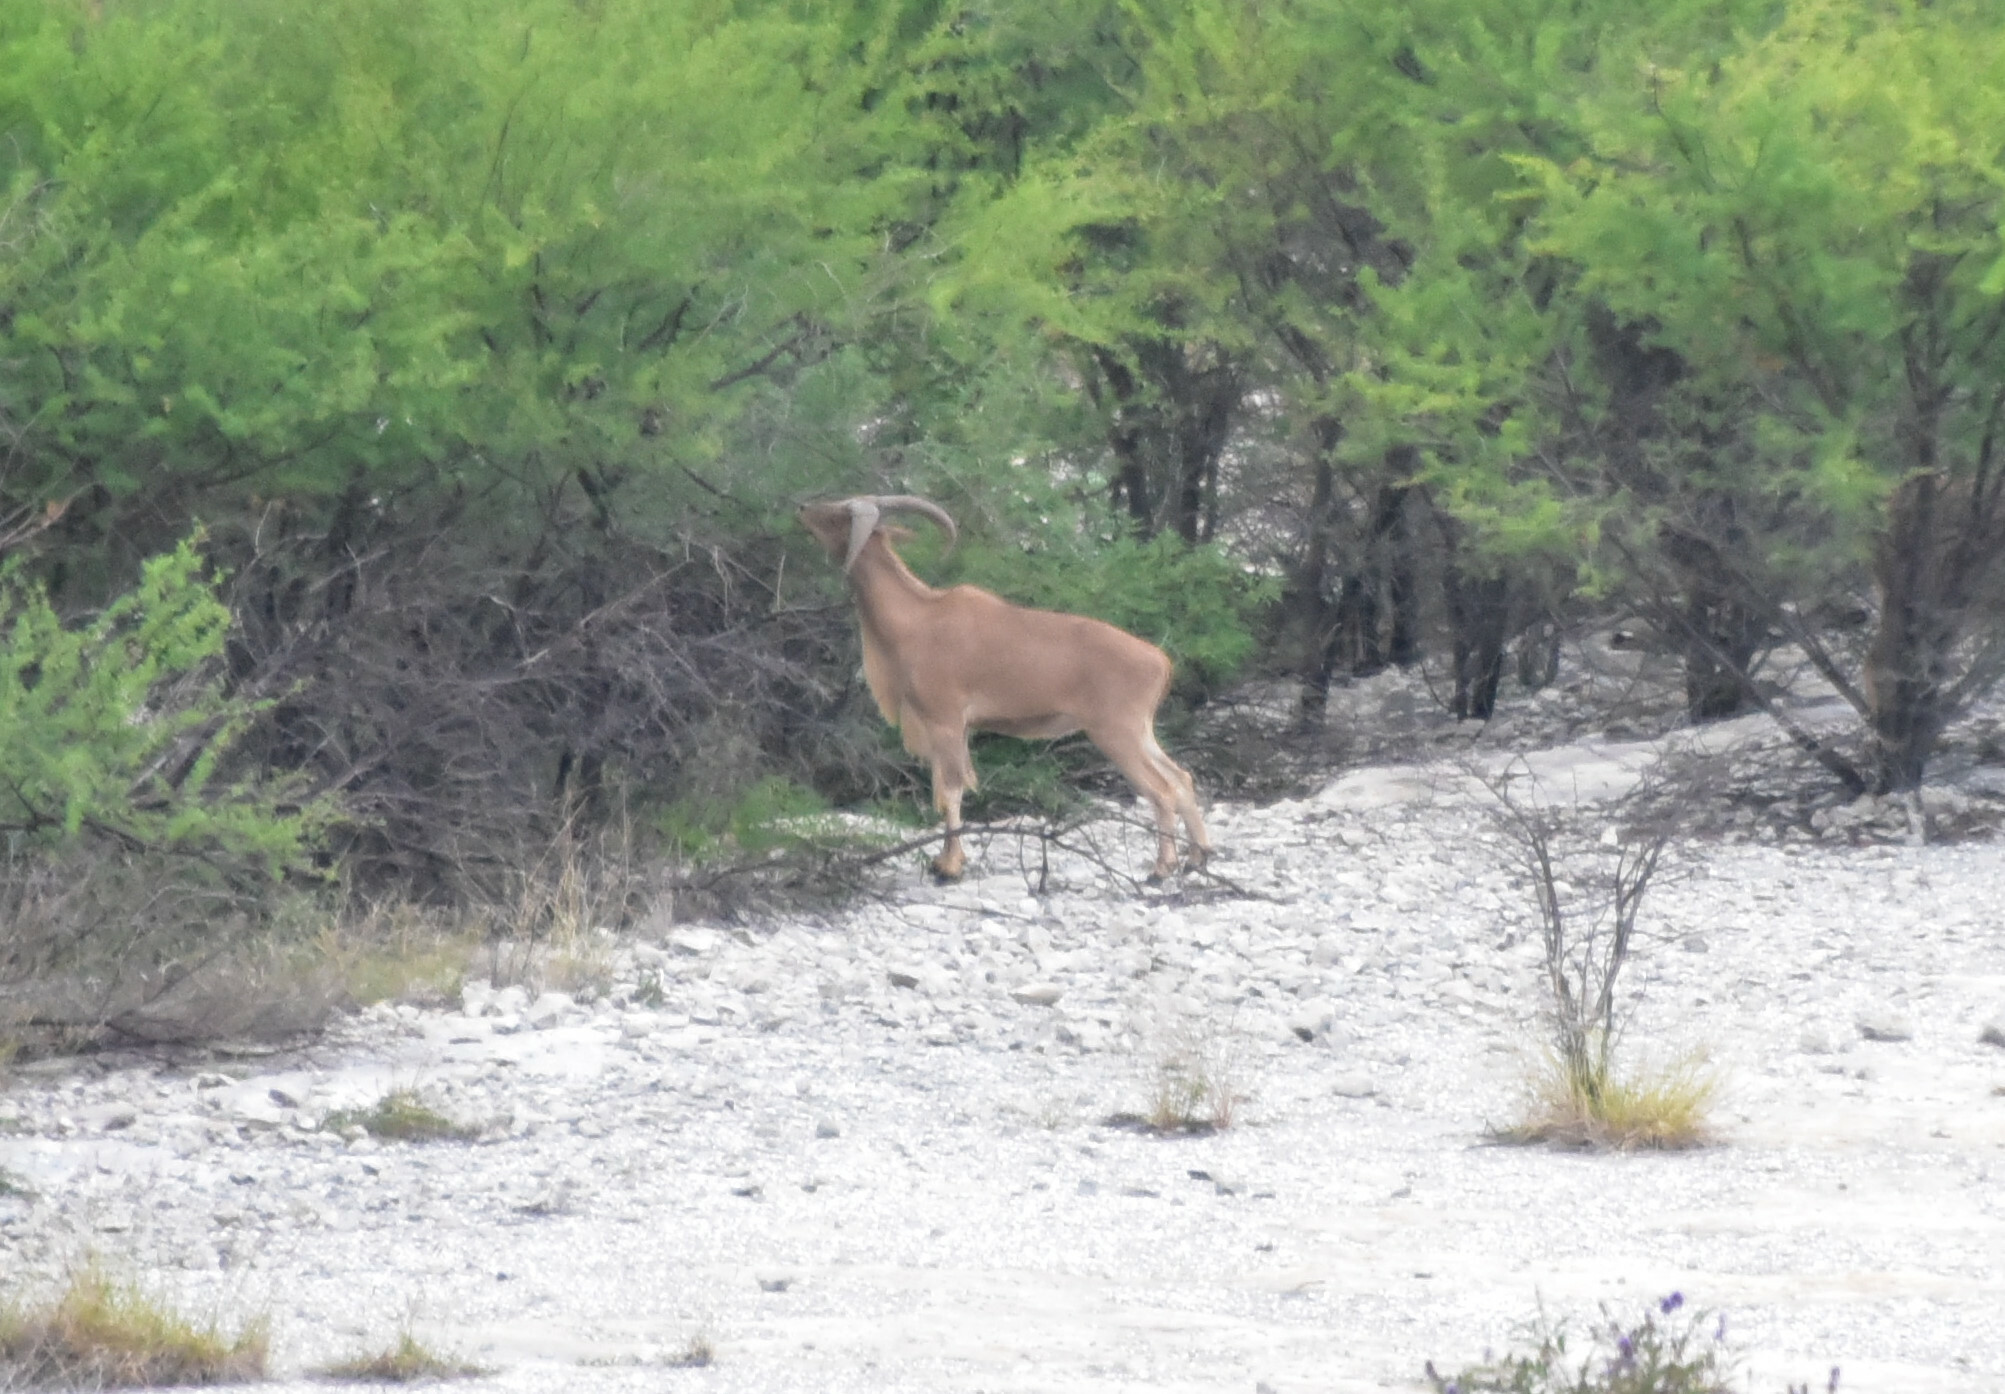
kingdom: Animalia
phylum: Chordata
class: Mammalia
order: Artiodactyla
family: Bovidae
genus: Ammotragus
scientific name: Ammotragus lervia
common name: Barbary sheep
